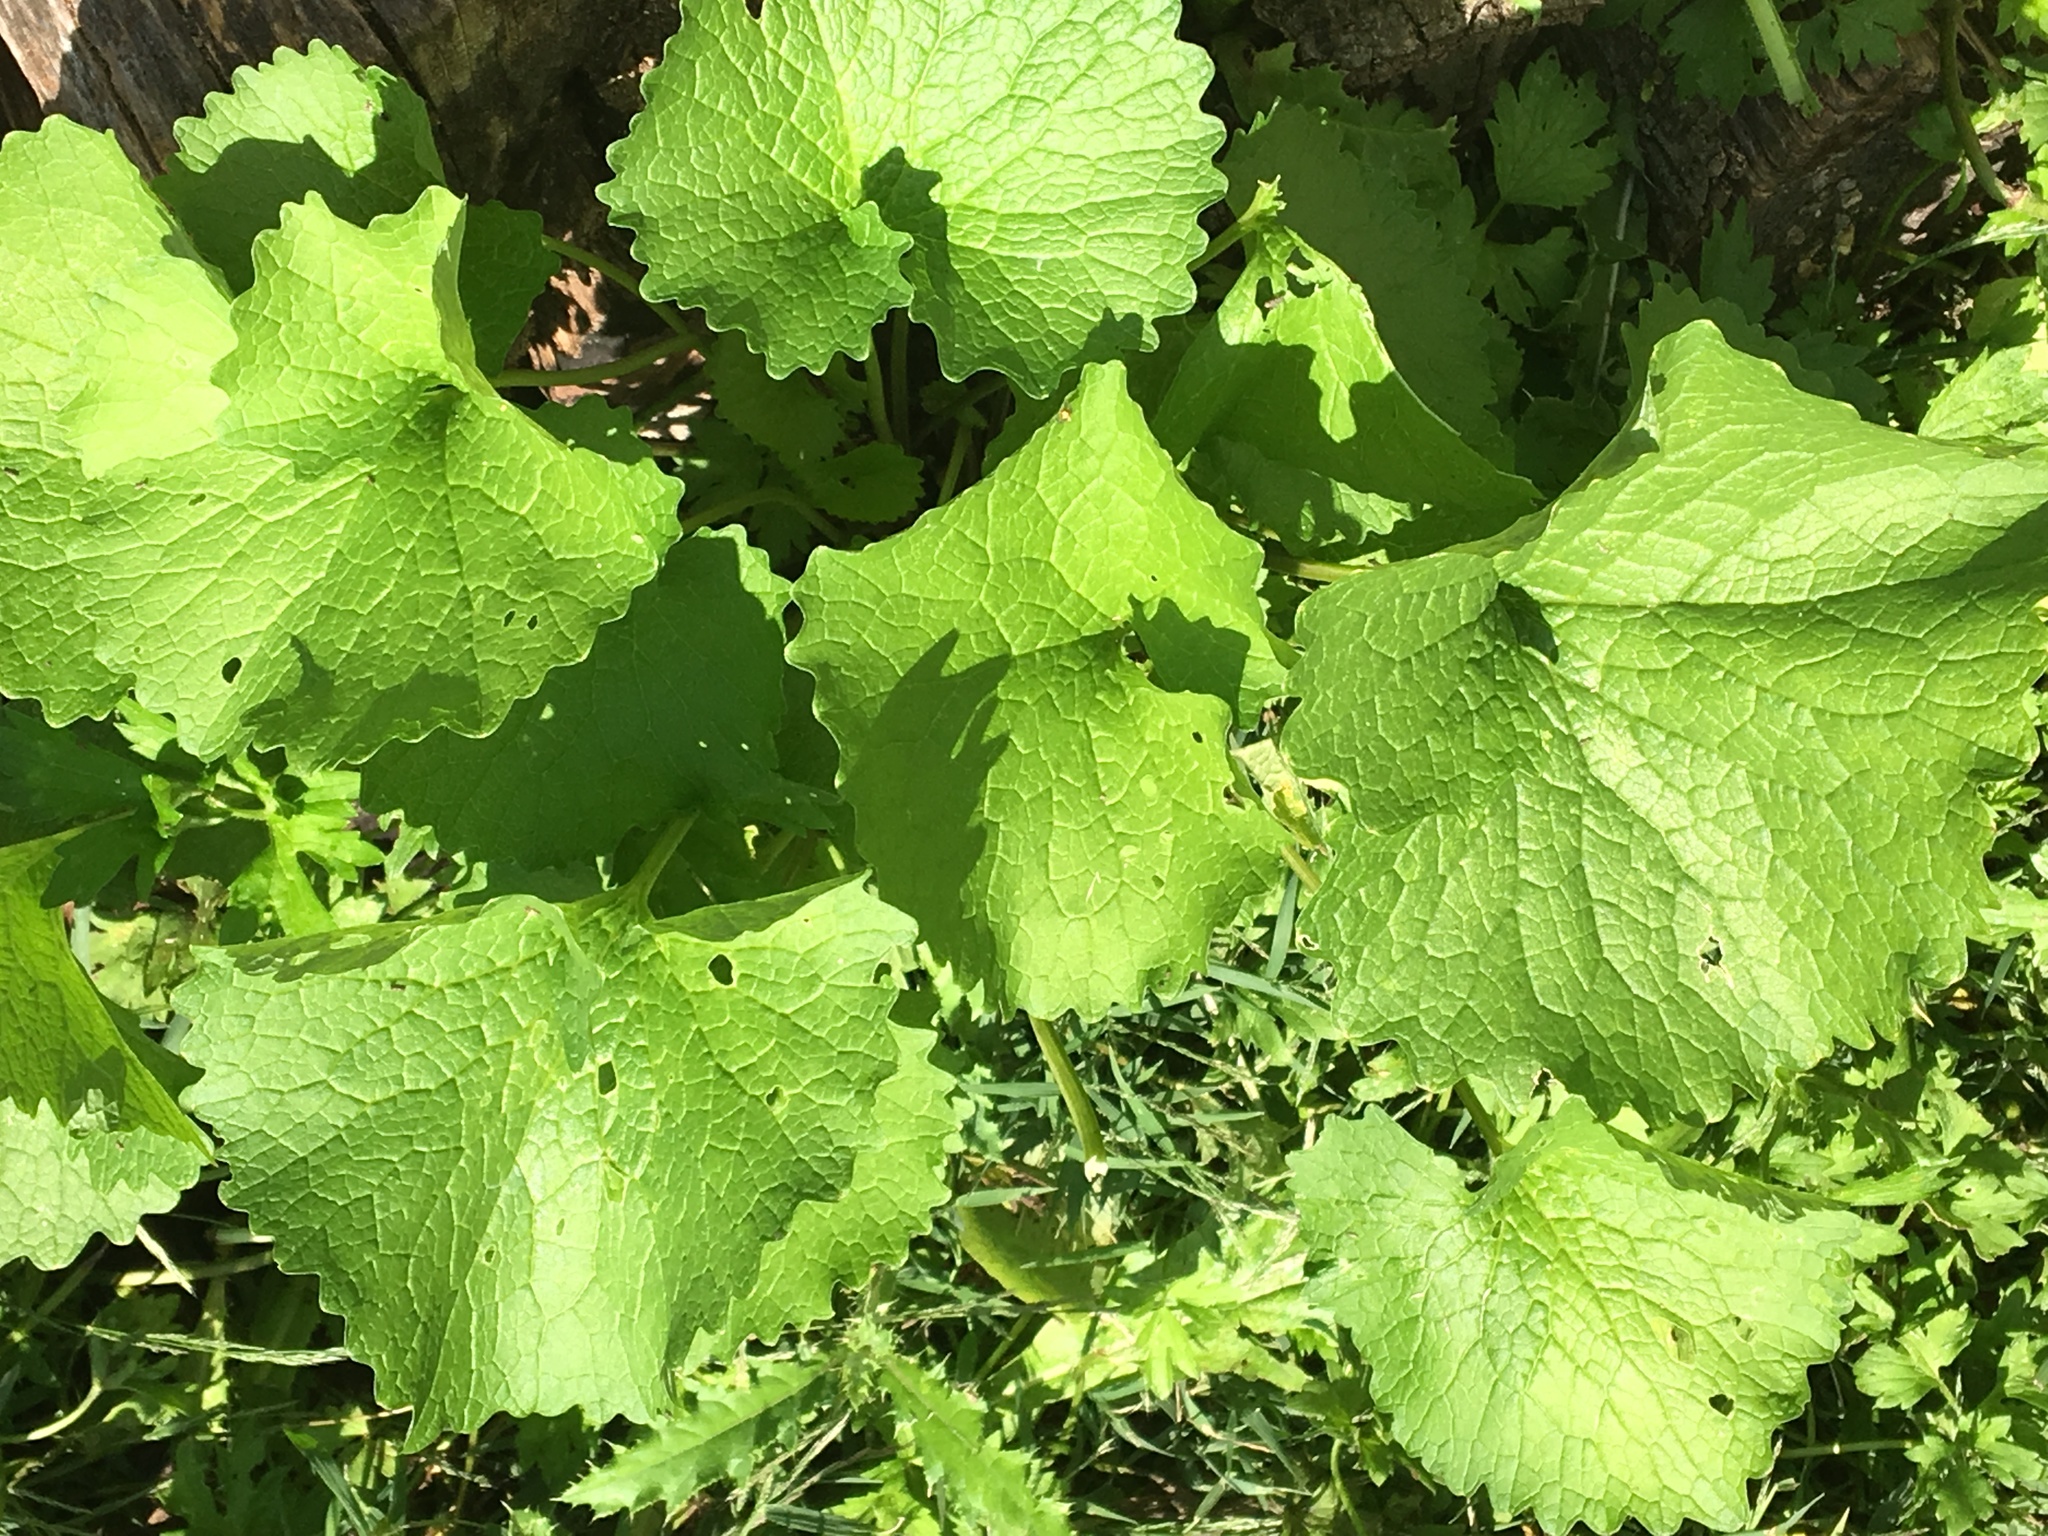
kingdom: Plantae
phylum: Tracheophyta
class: Magnoliopsida
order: Brassicales
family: Brassicaceae
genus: Alliaria
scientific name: Alliaria petiolata
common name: Garlic mustard
